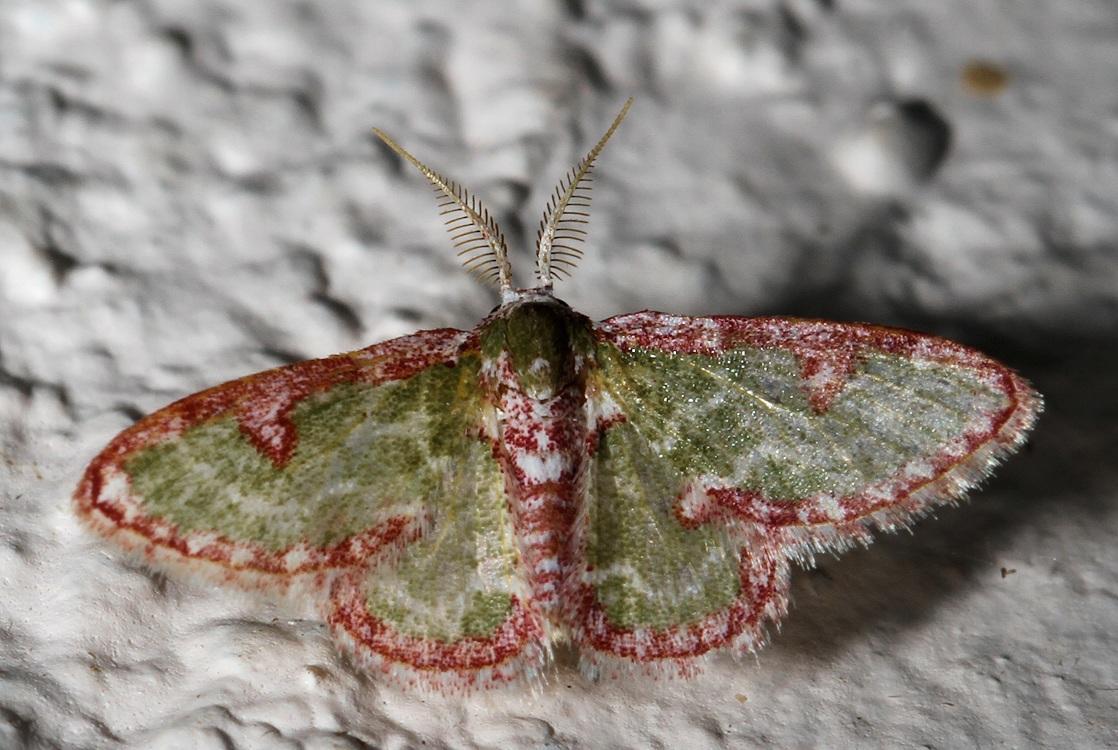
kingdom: Animalia
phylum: Arthropoda
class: Insecta
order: Lepidoptera
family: Geometridae
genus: Allochrostes
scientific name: Allochrostes biornata
